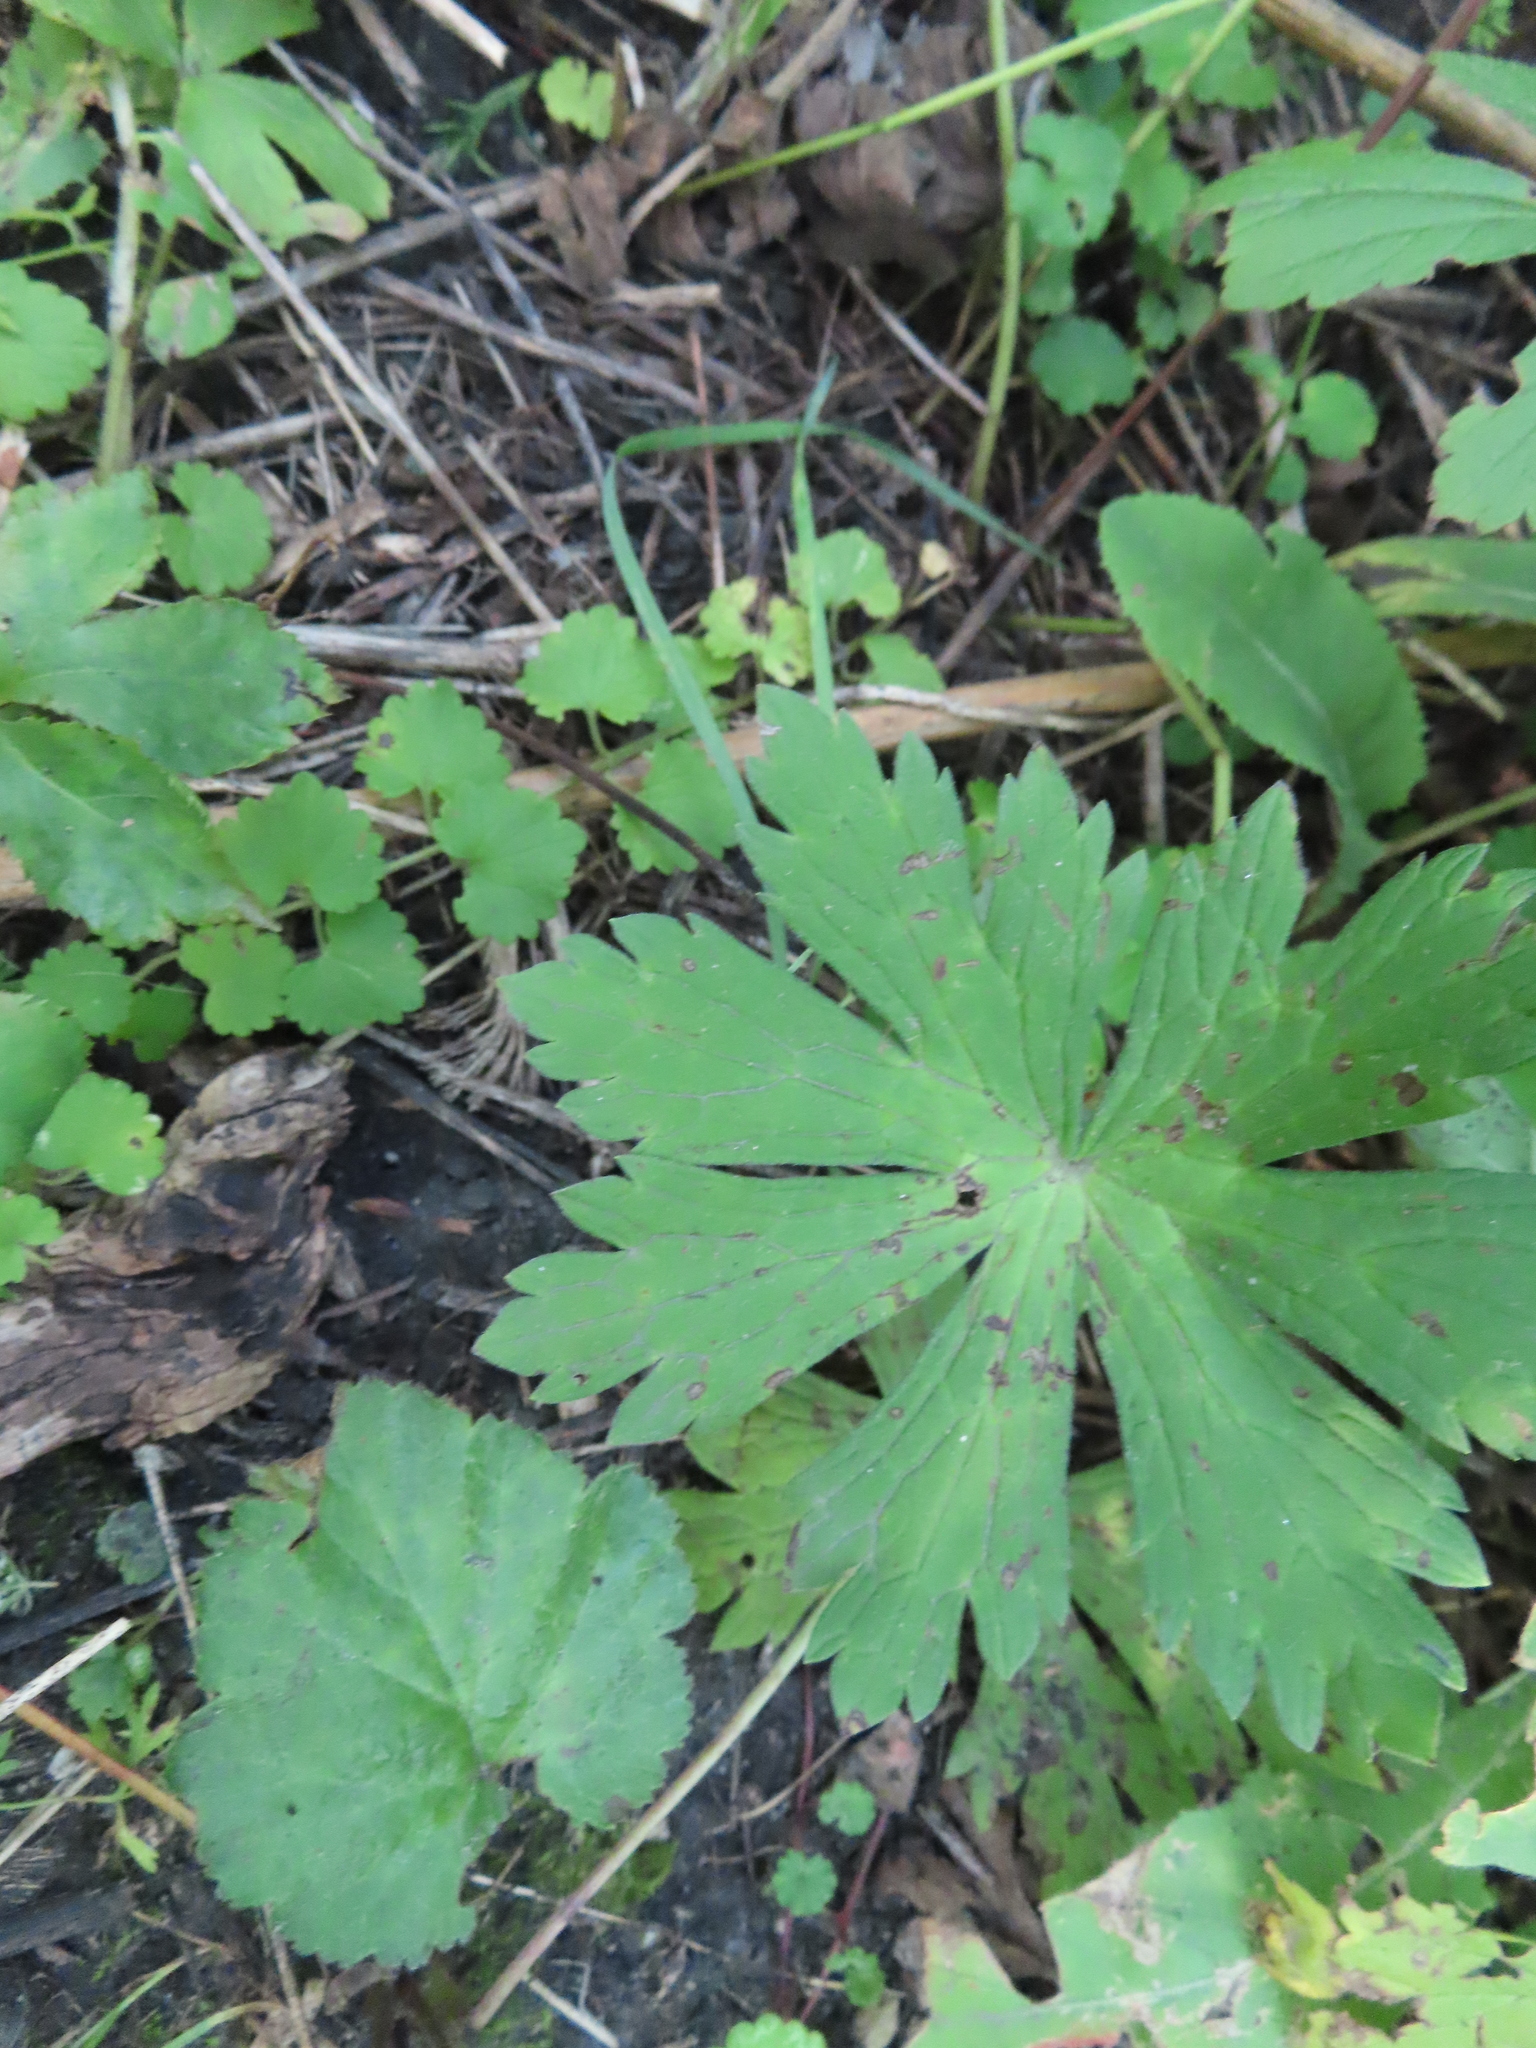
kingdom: Plantae
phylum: Tracheophyta
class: Magnoliopsida
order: Geraniales
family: Geraniaceae
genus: Geranium
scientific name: Geranium maculatum
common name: Spotted geranium
